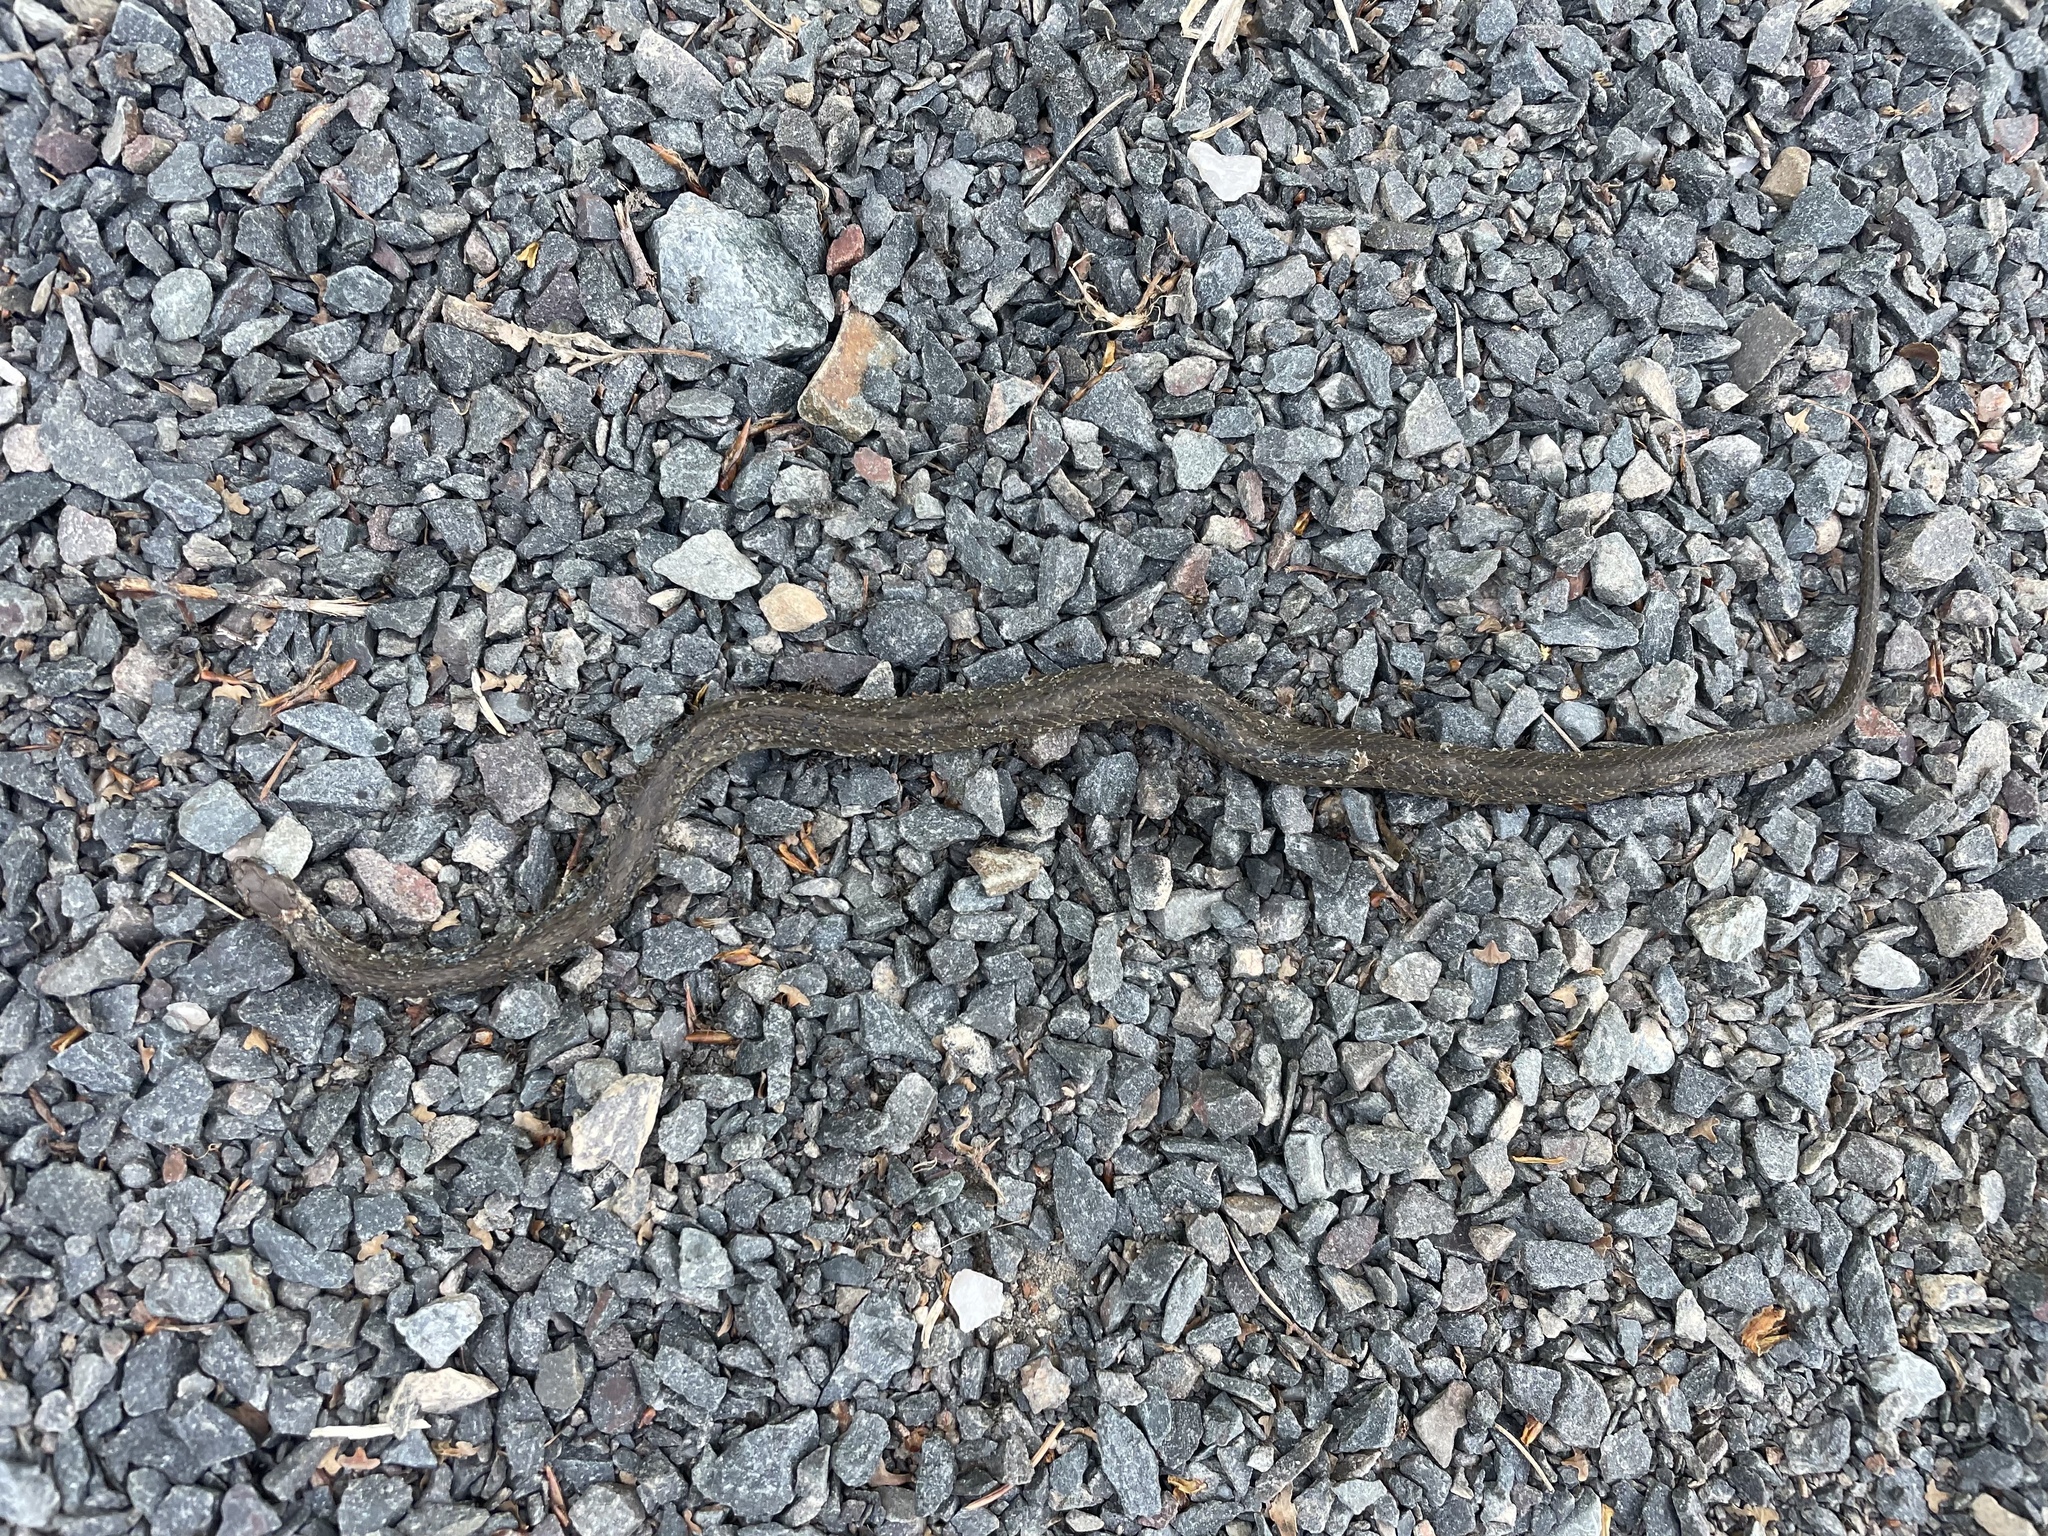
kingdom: Animalia
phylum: Chordata
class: Squamata
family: Colubridae
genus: Storeria
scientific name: Storeria occipitomaculata
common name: Redbelly snake
